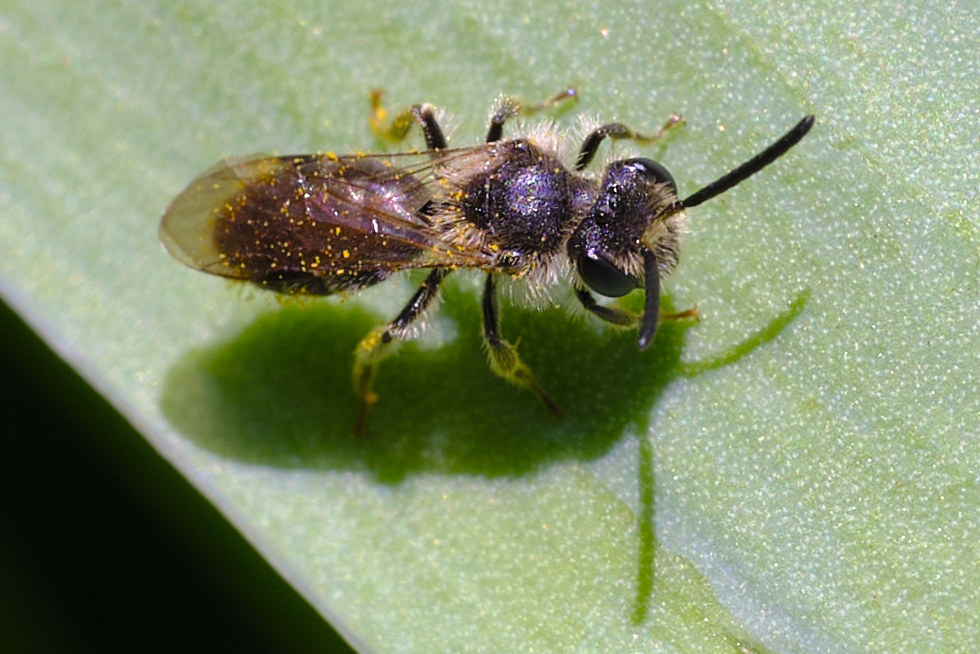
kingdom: Animalia
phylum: Arthropoda
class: Insecta
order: Hymenoptera
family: Andrenidae
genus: Andrena
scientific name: Andrena labiata
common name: Red-girdled mining bee
